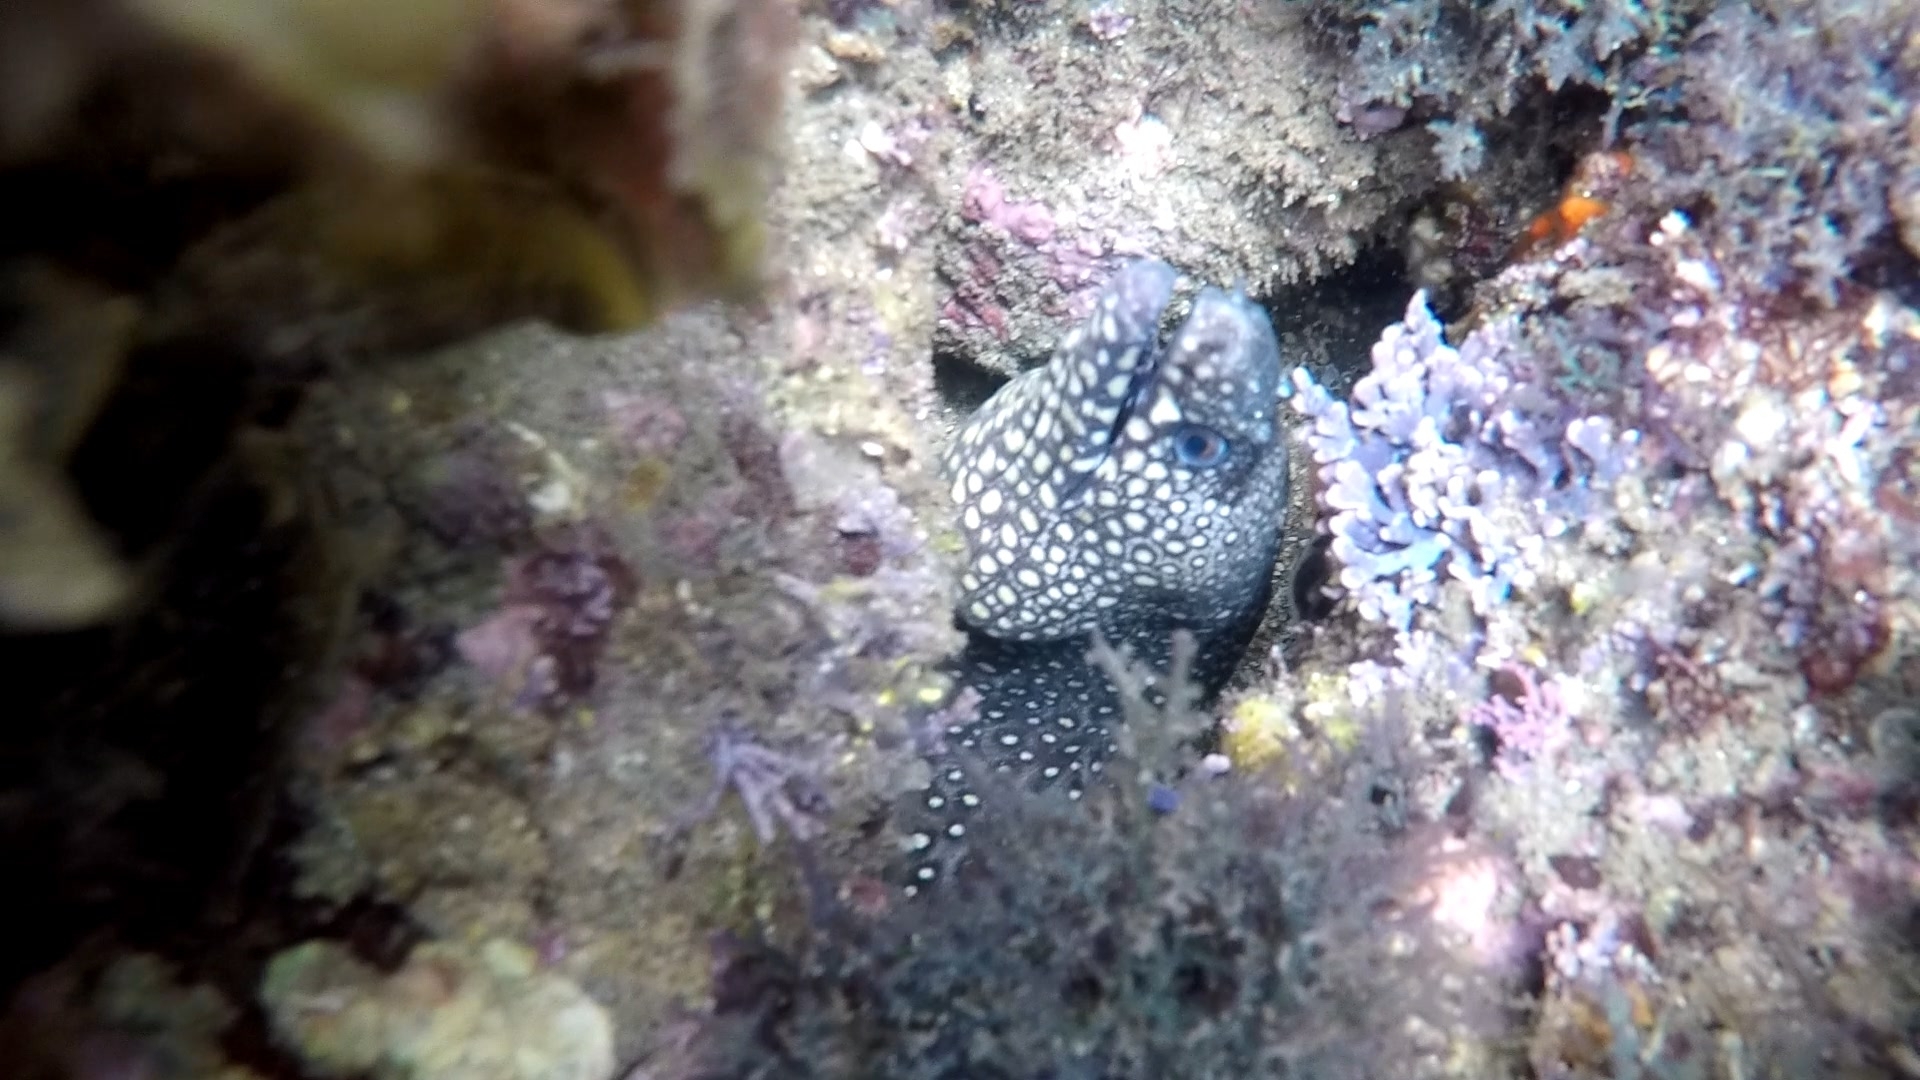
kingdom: Animalia
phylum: Chordata
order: Anguilliformes
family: Muraenidae
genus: Muraena
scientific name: Muraena lentiginosa
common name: Jewel moray
